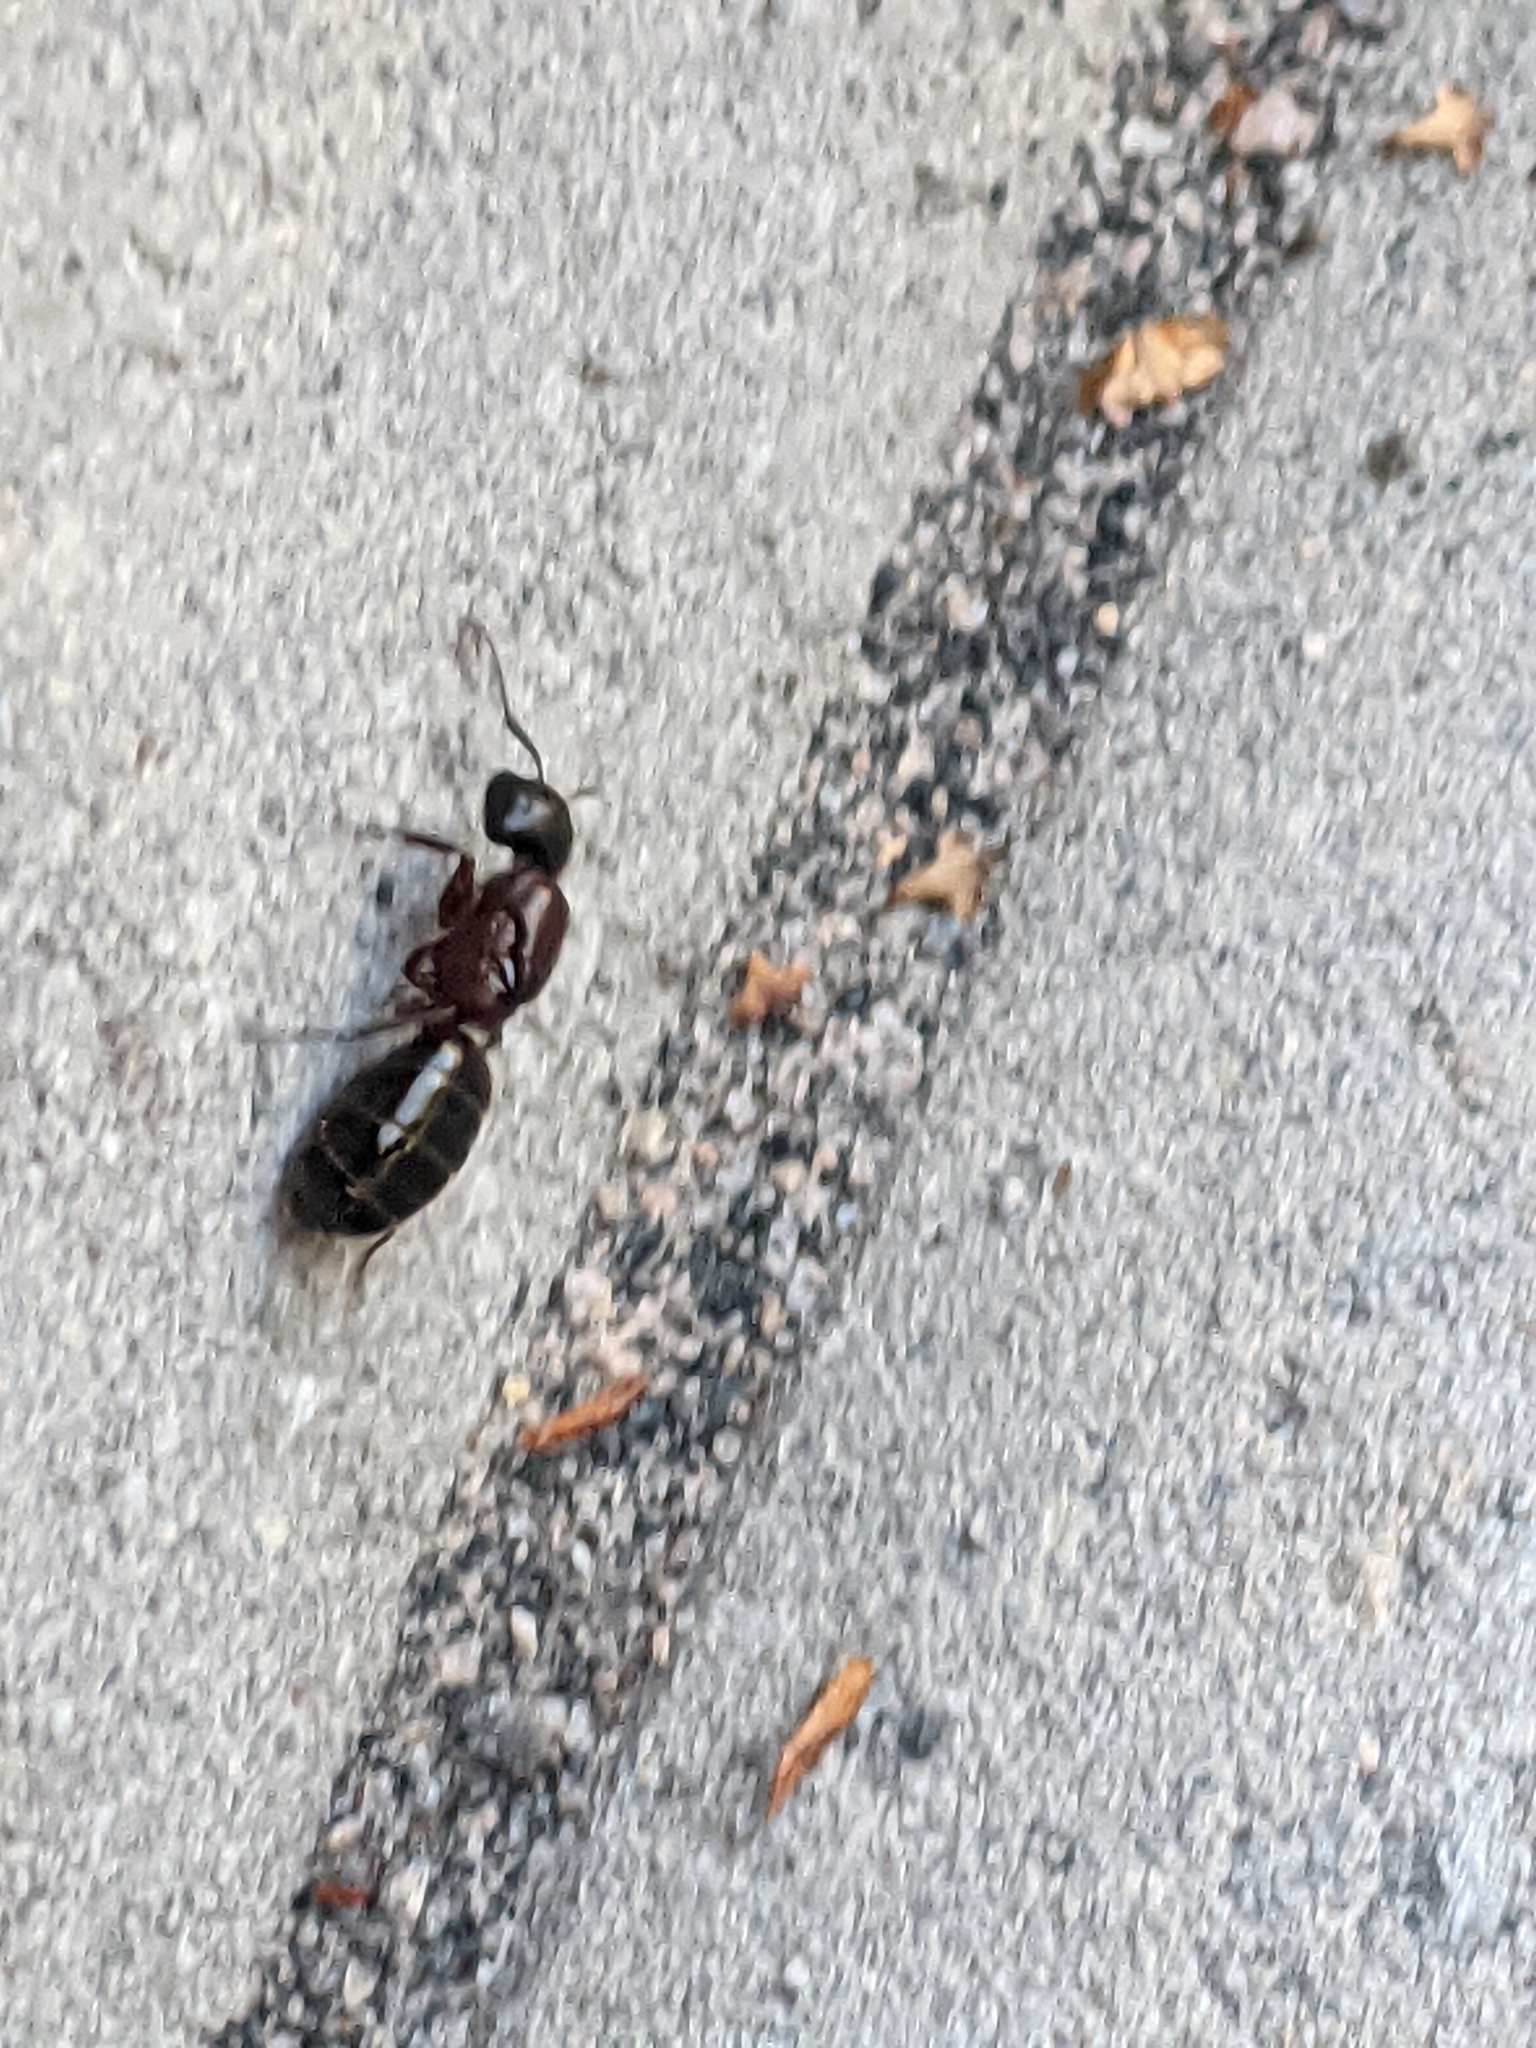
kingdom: Animalia
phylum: Arthropoda
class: Insecta
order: Hymenoptera
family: Formicidae
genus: Camponotus
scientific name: Camponotus novaeboracensis
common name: New york carpenter ant
